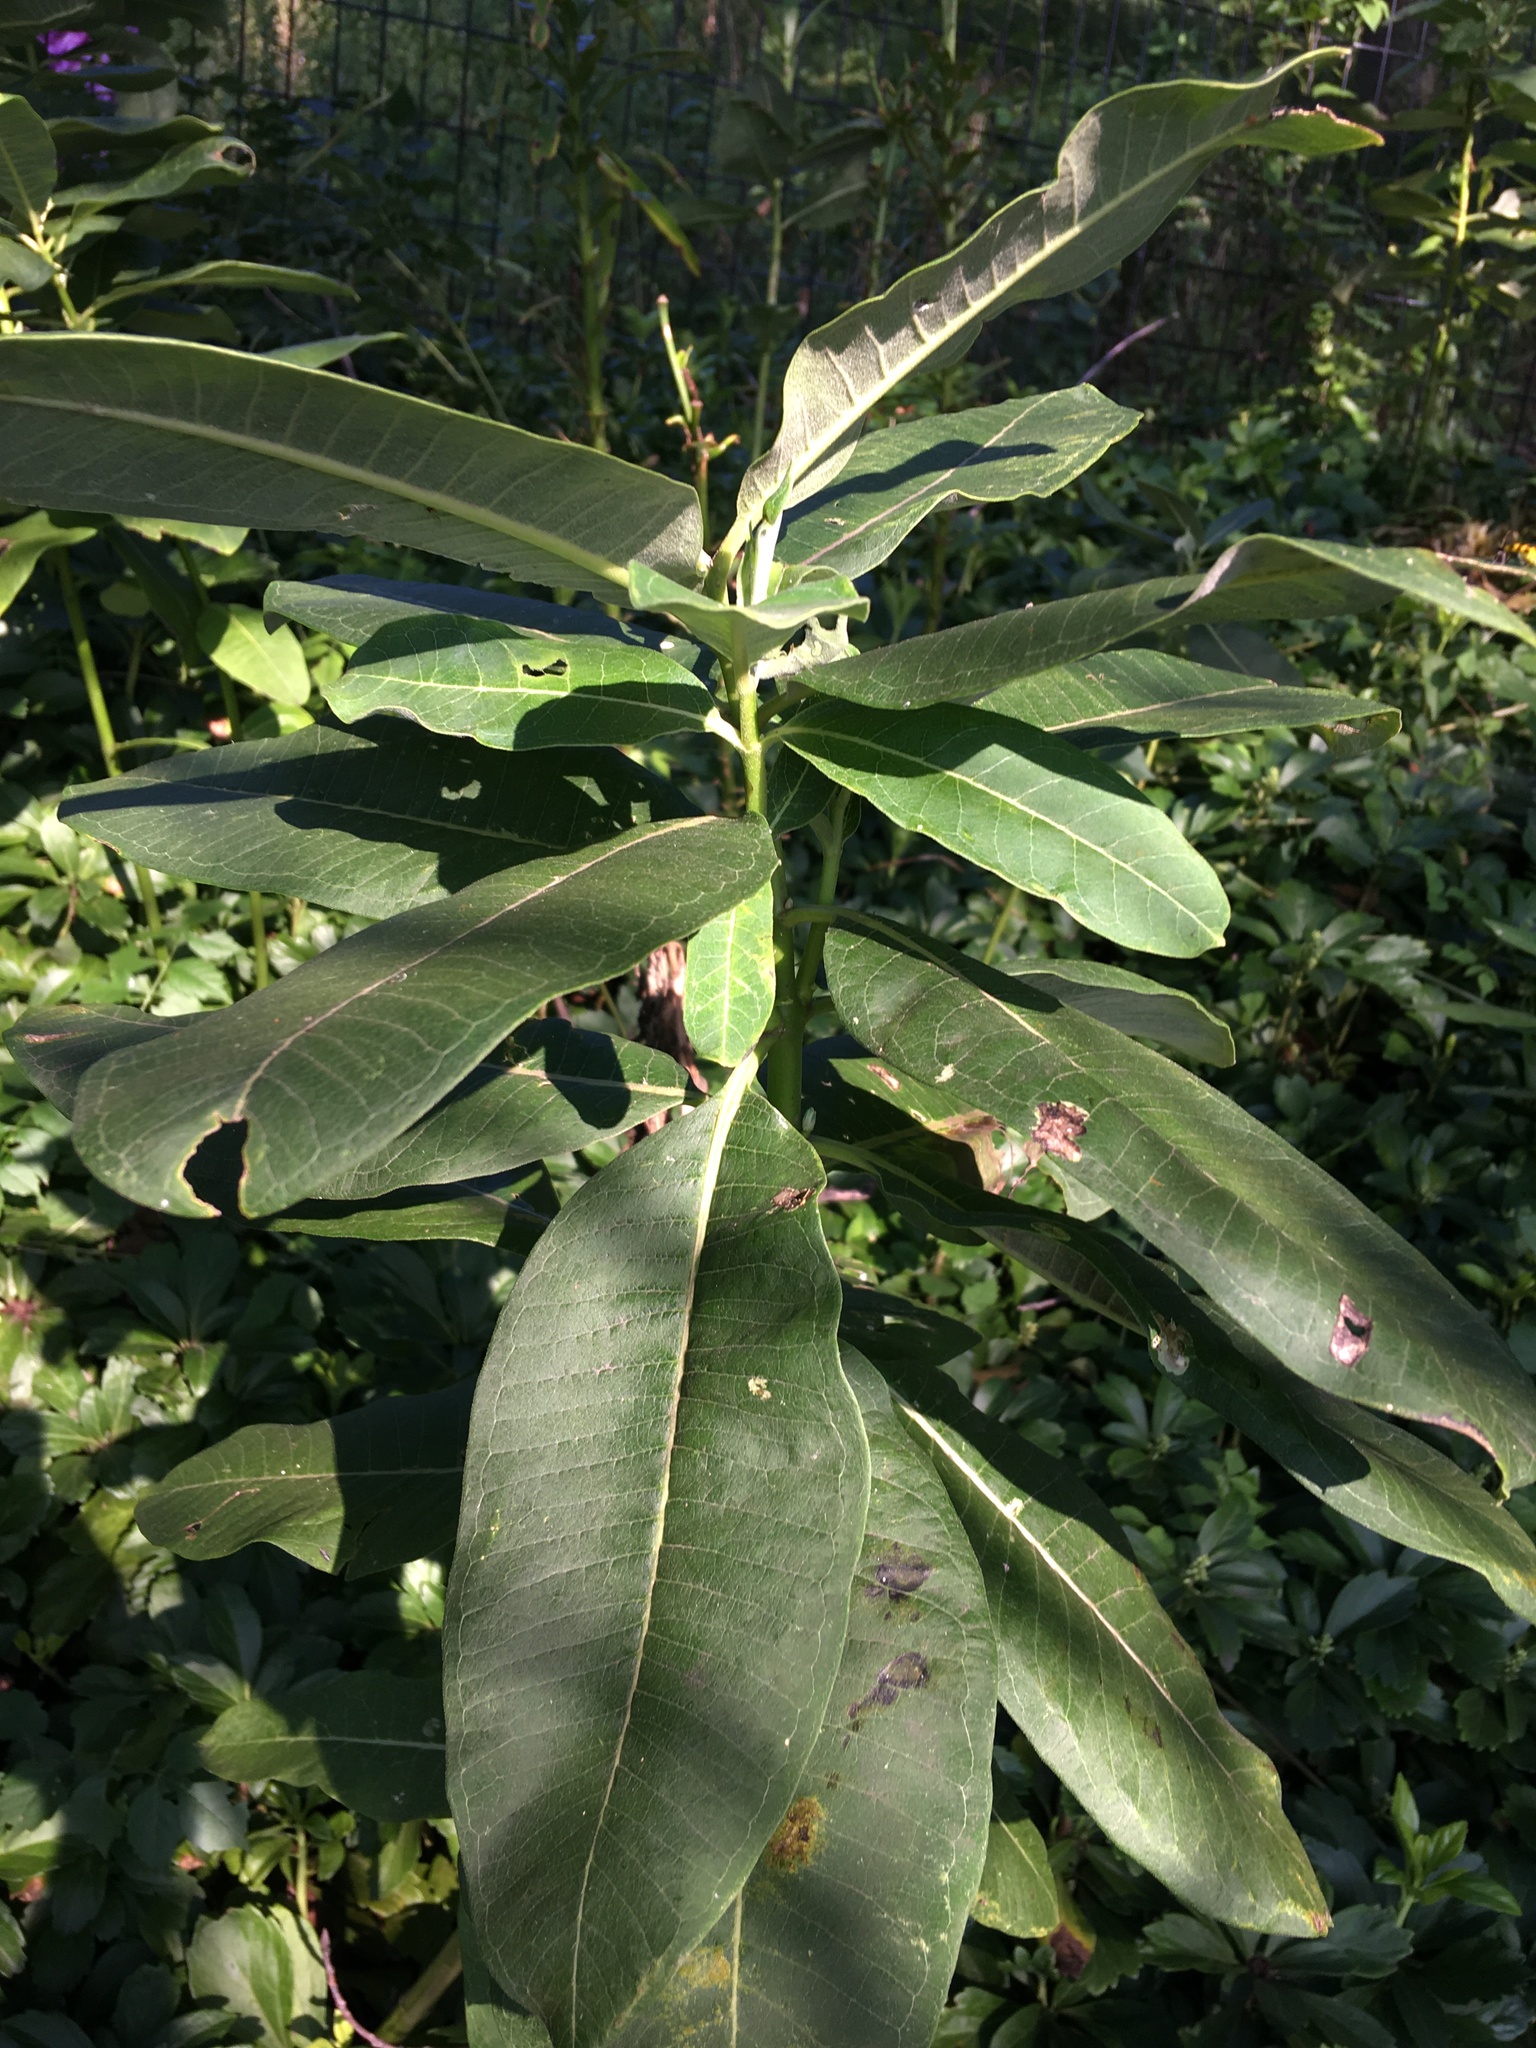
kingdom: Plantae
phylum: Tracheophyta
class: Magnoliopsida
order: Gentianales
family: Apocynaceae
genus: Asclepias
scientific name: Asclepias syriaca
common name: Common milkweed
